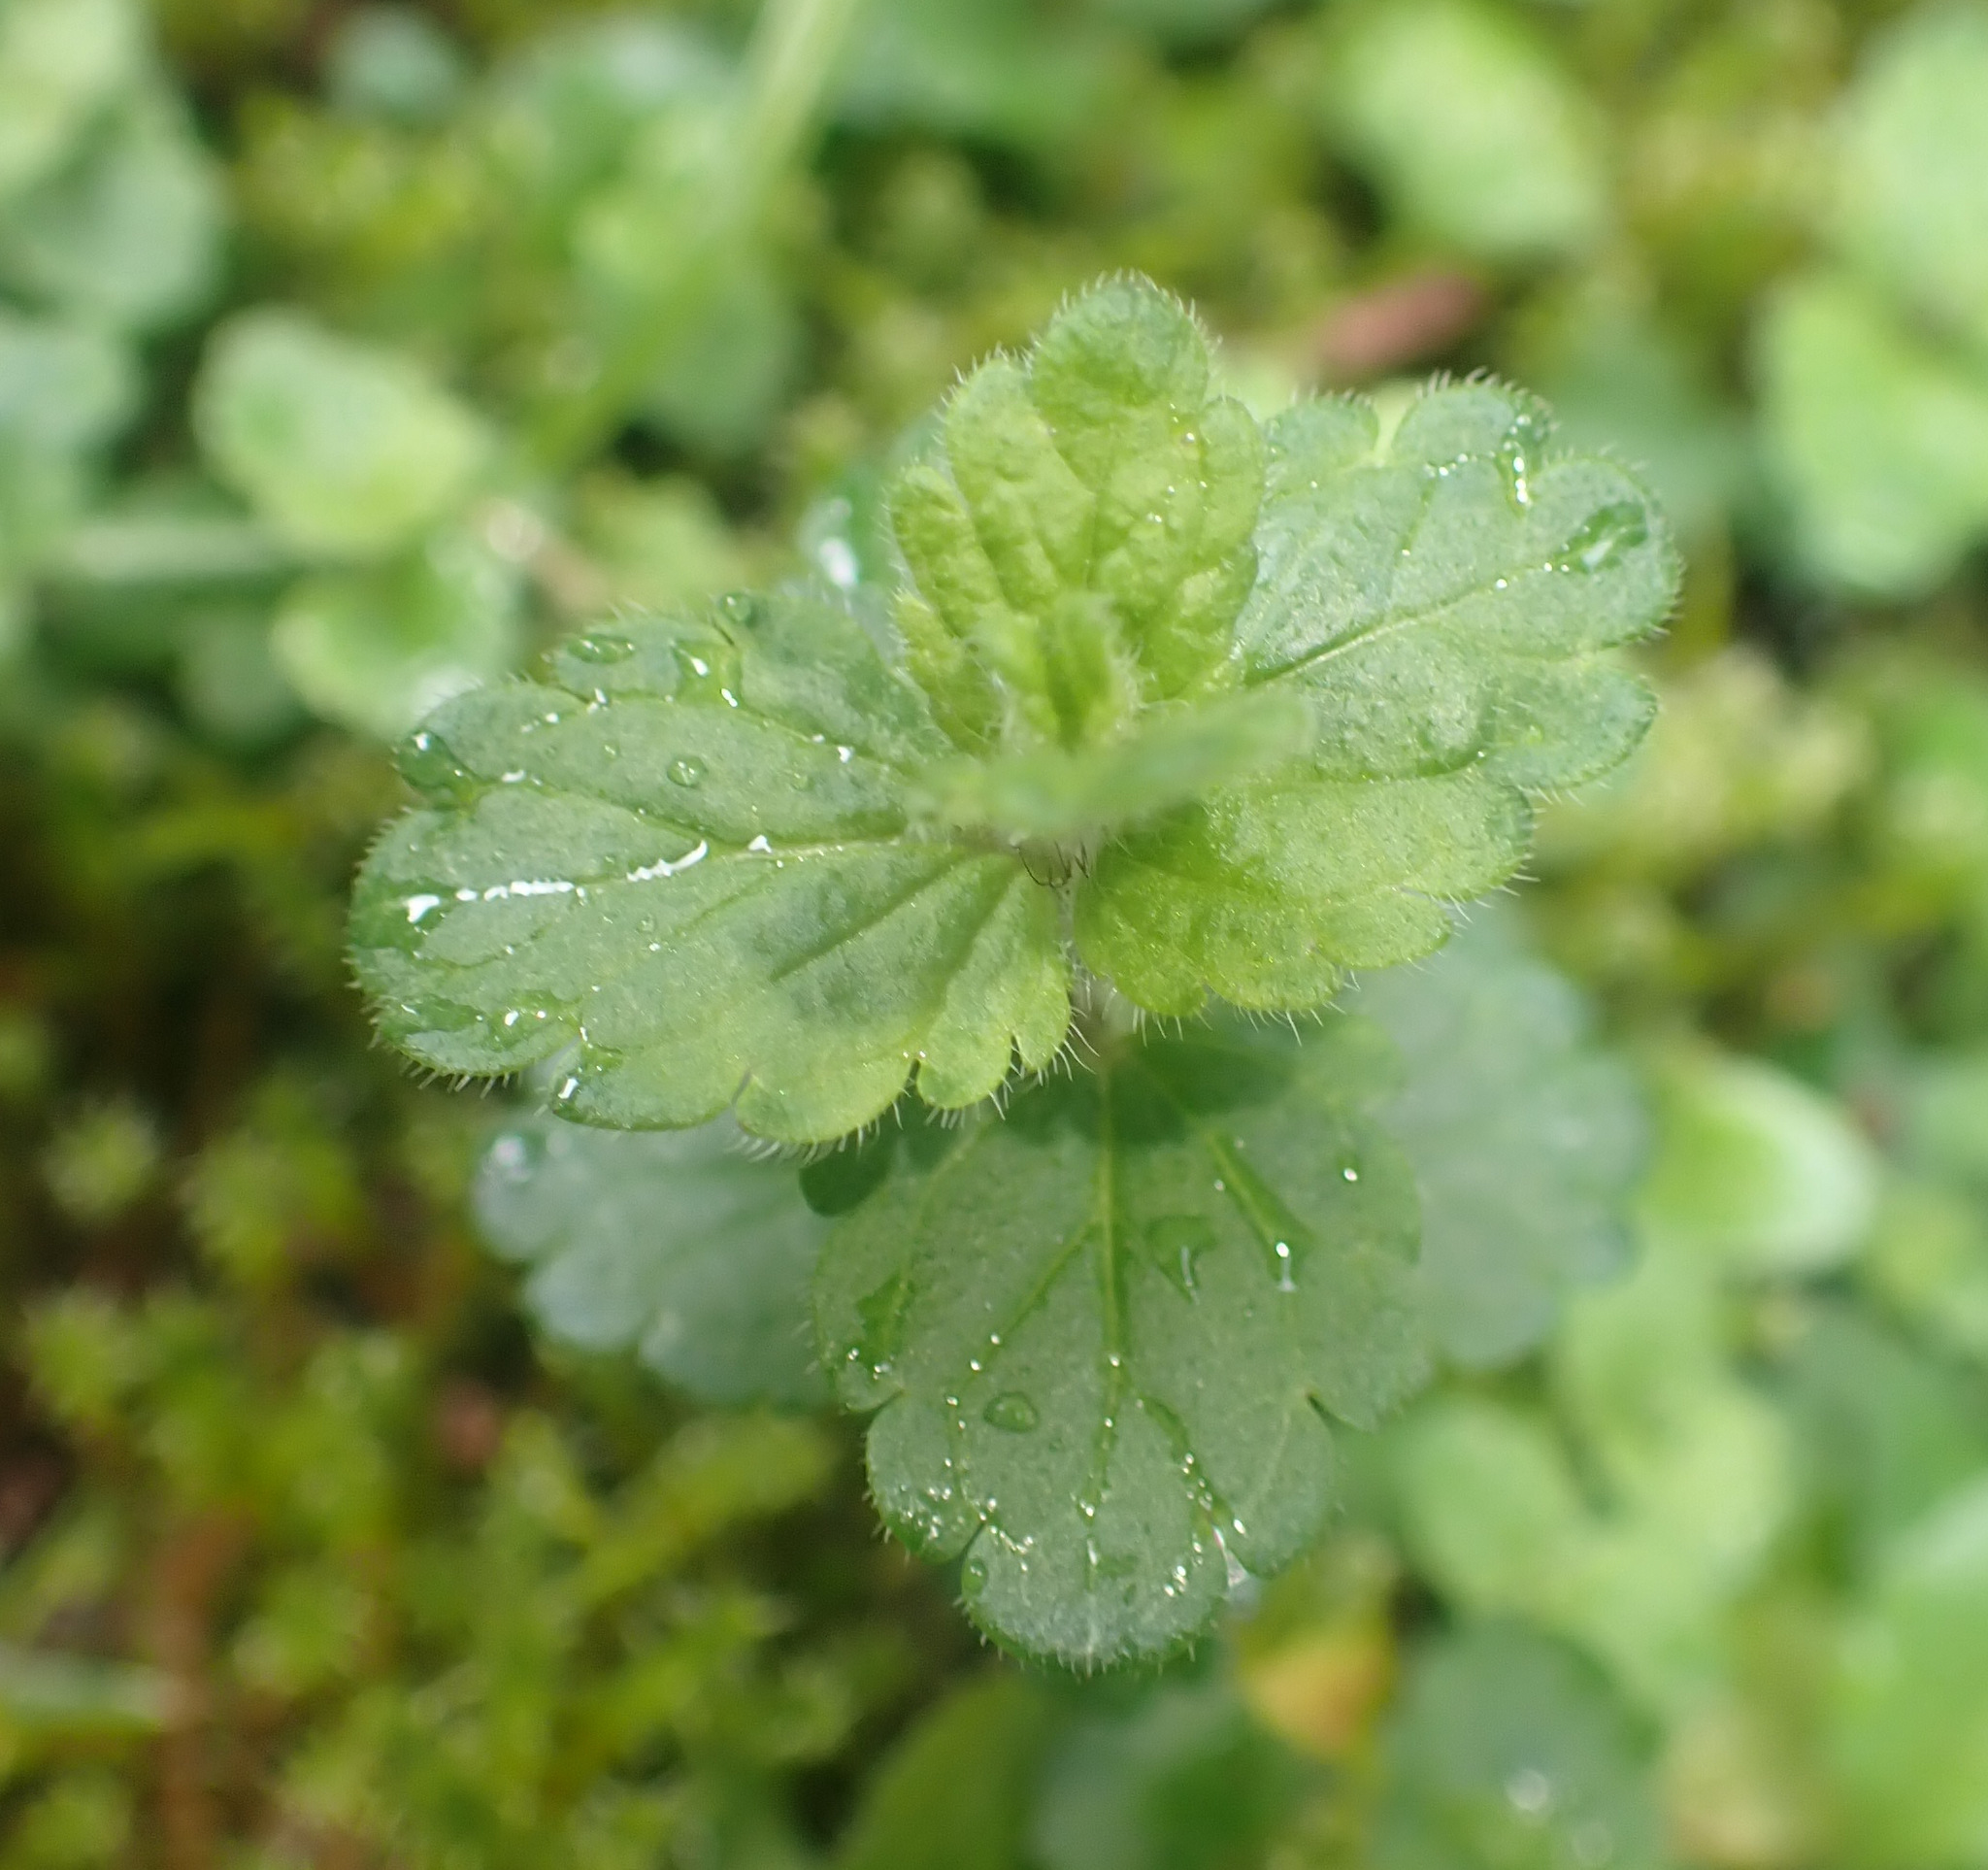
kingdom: Plantae
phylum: Tracheophyta
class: Magnoliopsida
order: Lamiales
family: Plantaginaceae
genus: Veronica
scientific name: Veronica chamaedrys
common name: Germander speedwell
